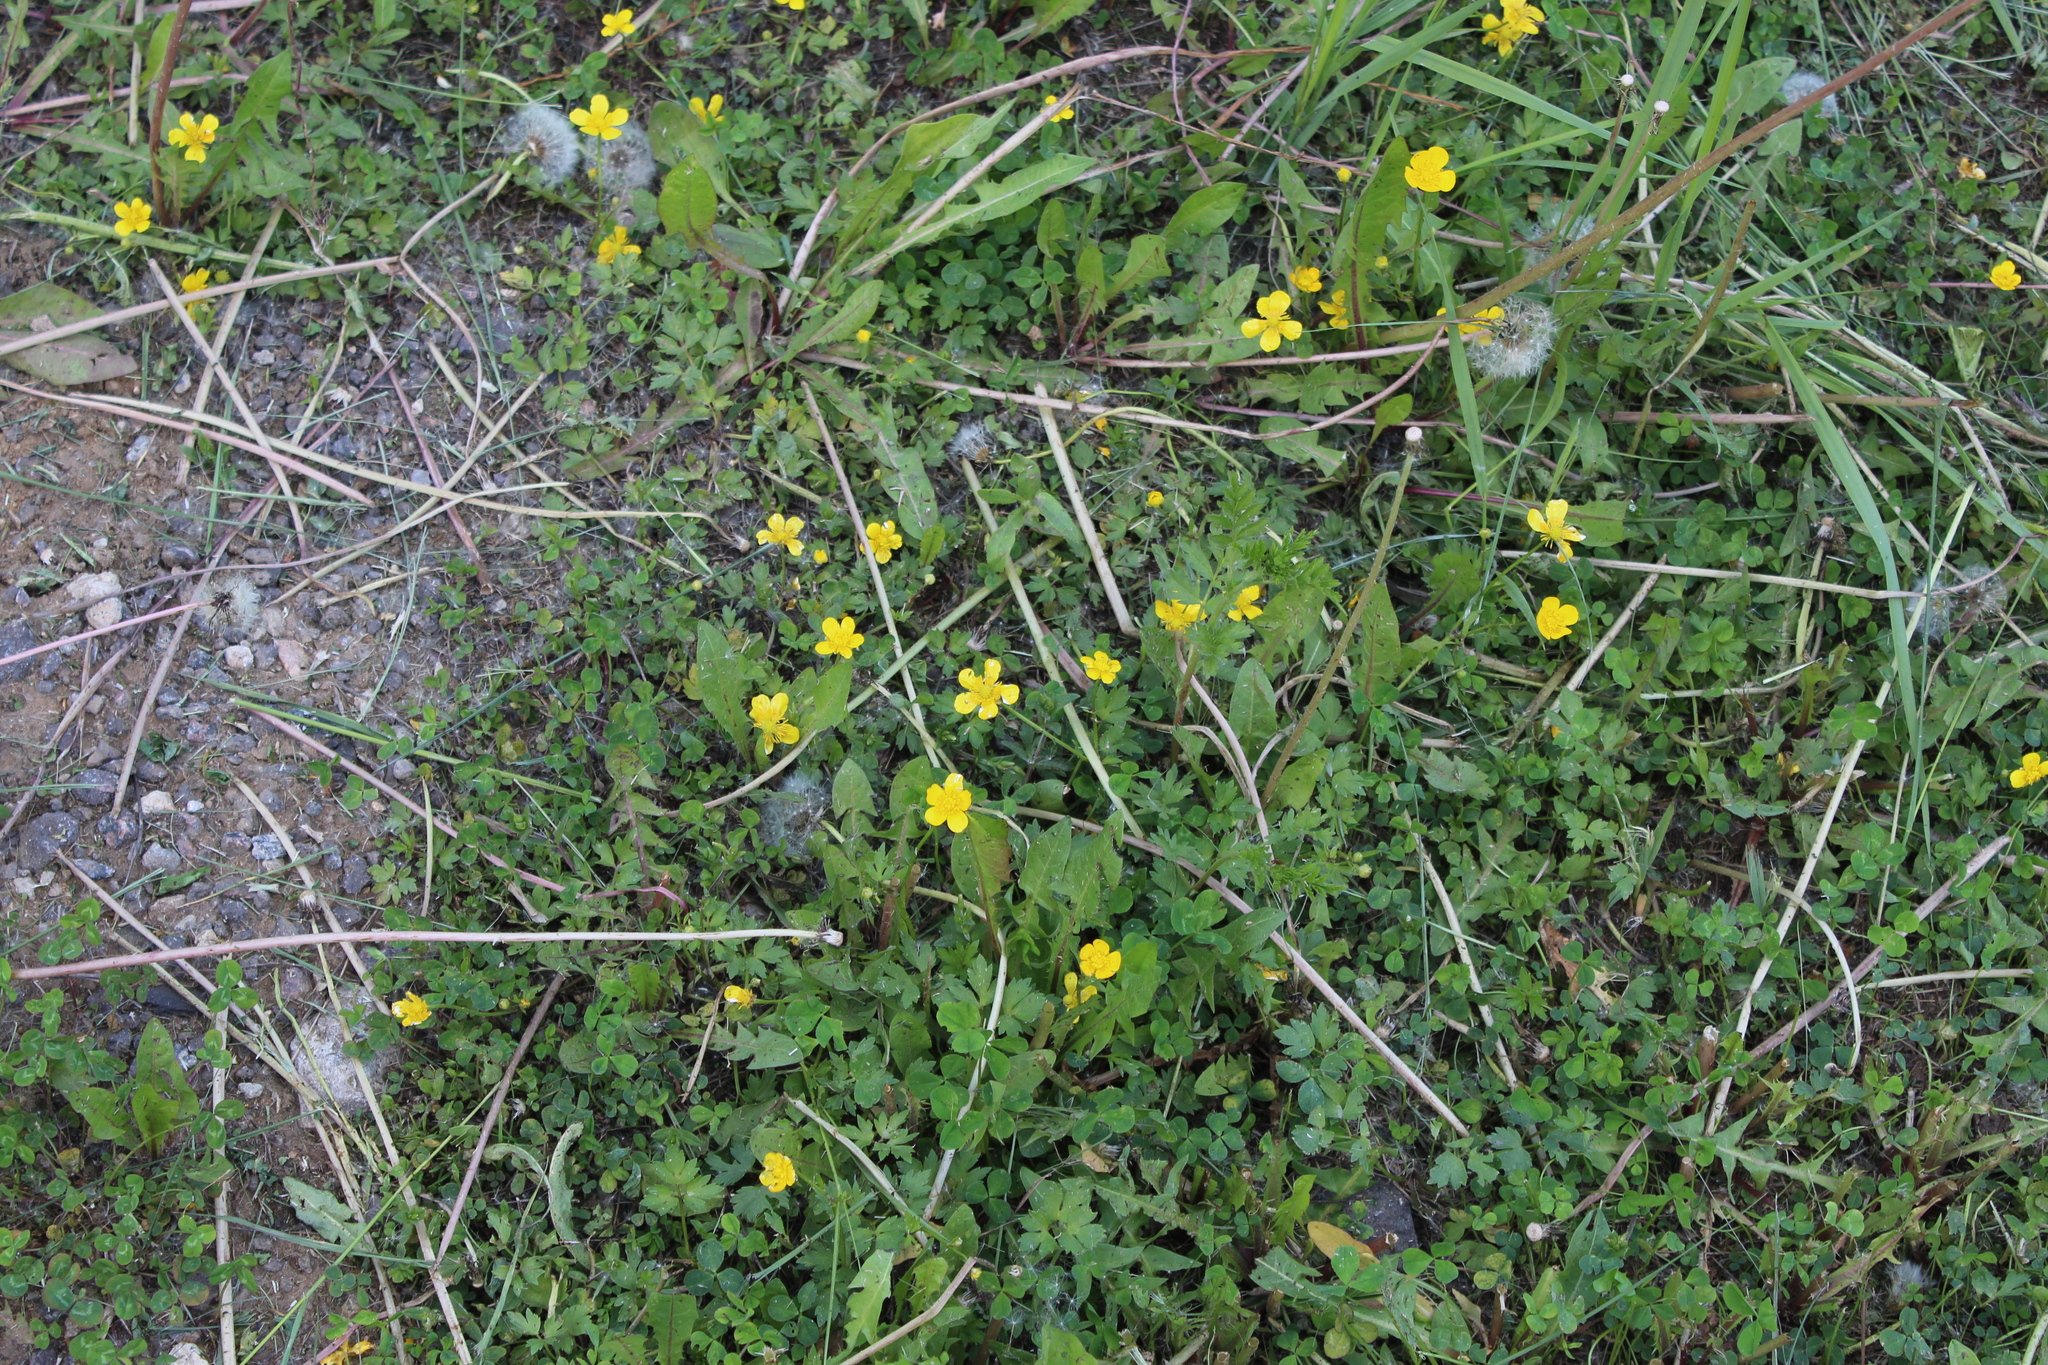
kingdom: Plantae
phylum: Tracheophyta
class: Magnoliopsida
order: Ranunculales
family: Ranunculaceae
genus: Ranunculus
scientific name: Ranunculus repens
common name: Creeping buttercup
